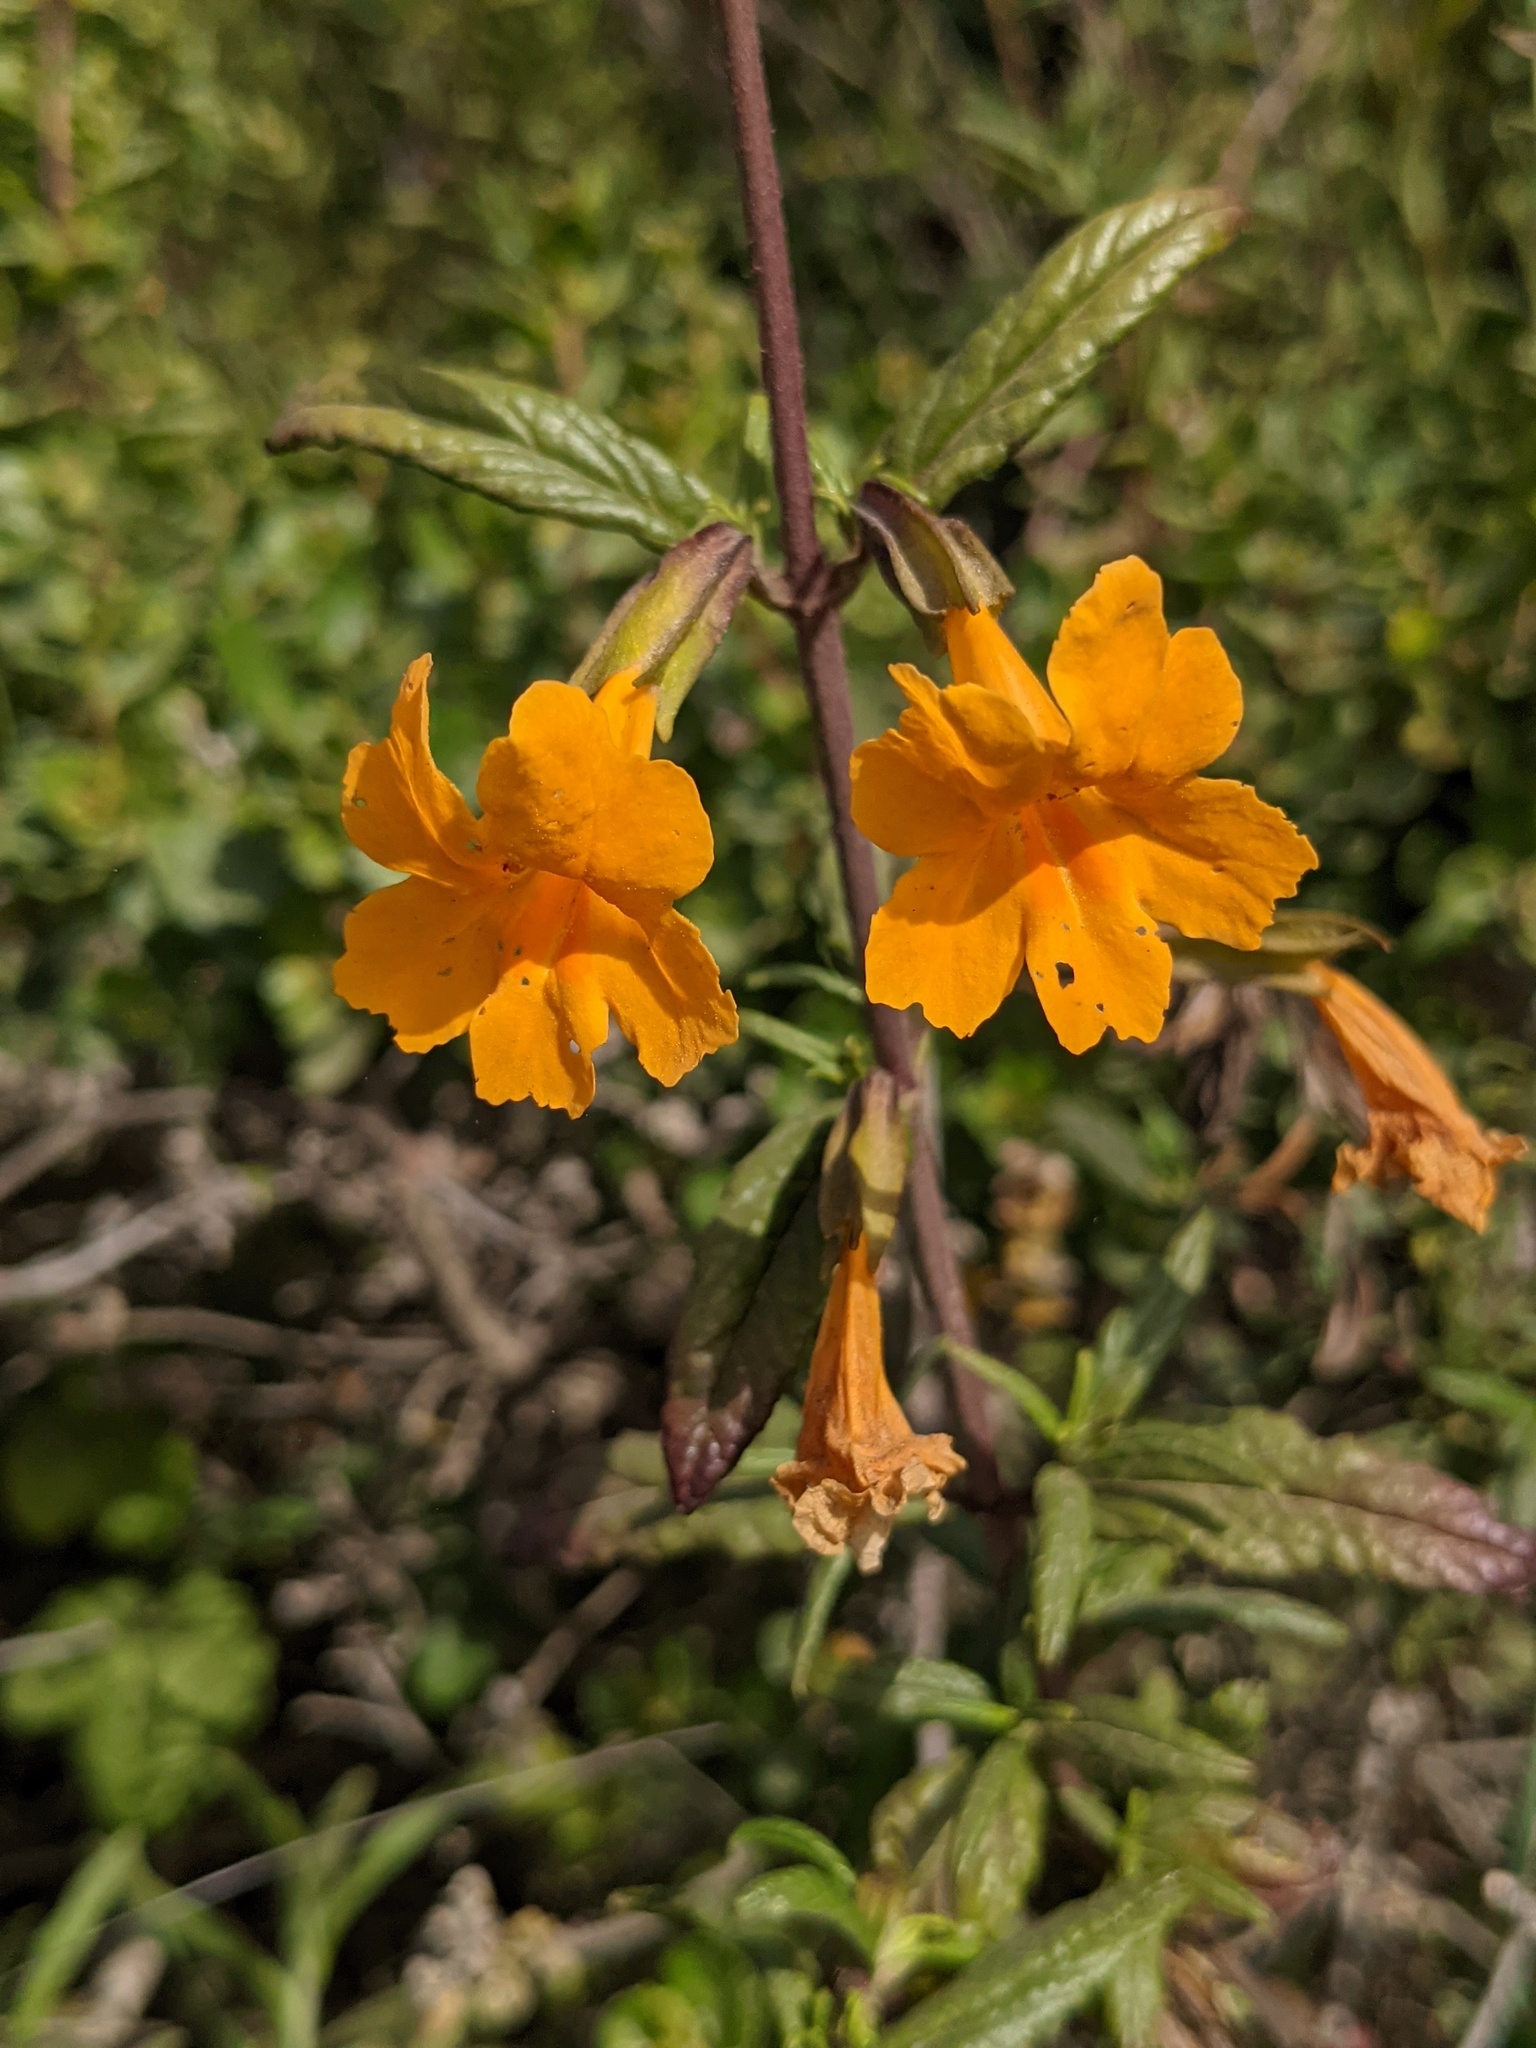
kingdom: Plantae
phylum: Tracheophyta
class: Magnoliopsida
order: Lamiales
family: Phrymaceae
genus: Diplacus
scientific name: Diplacus aurantiacus
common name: Bush monkey-flower
